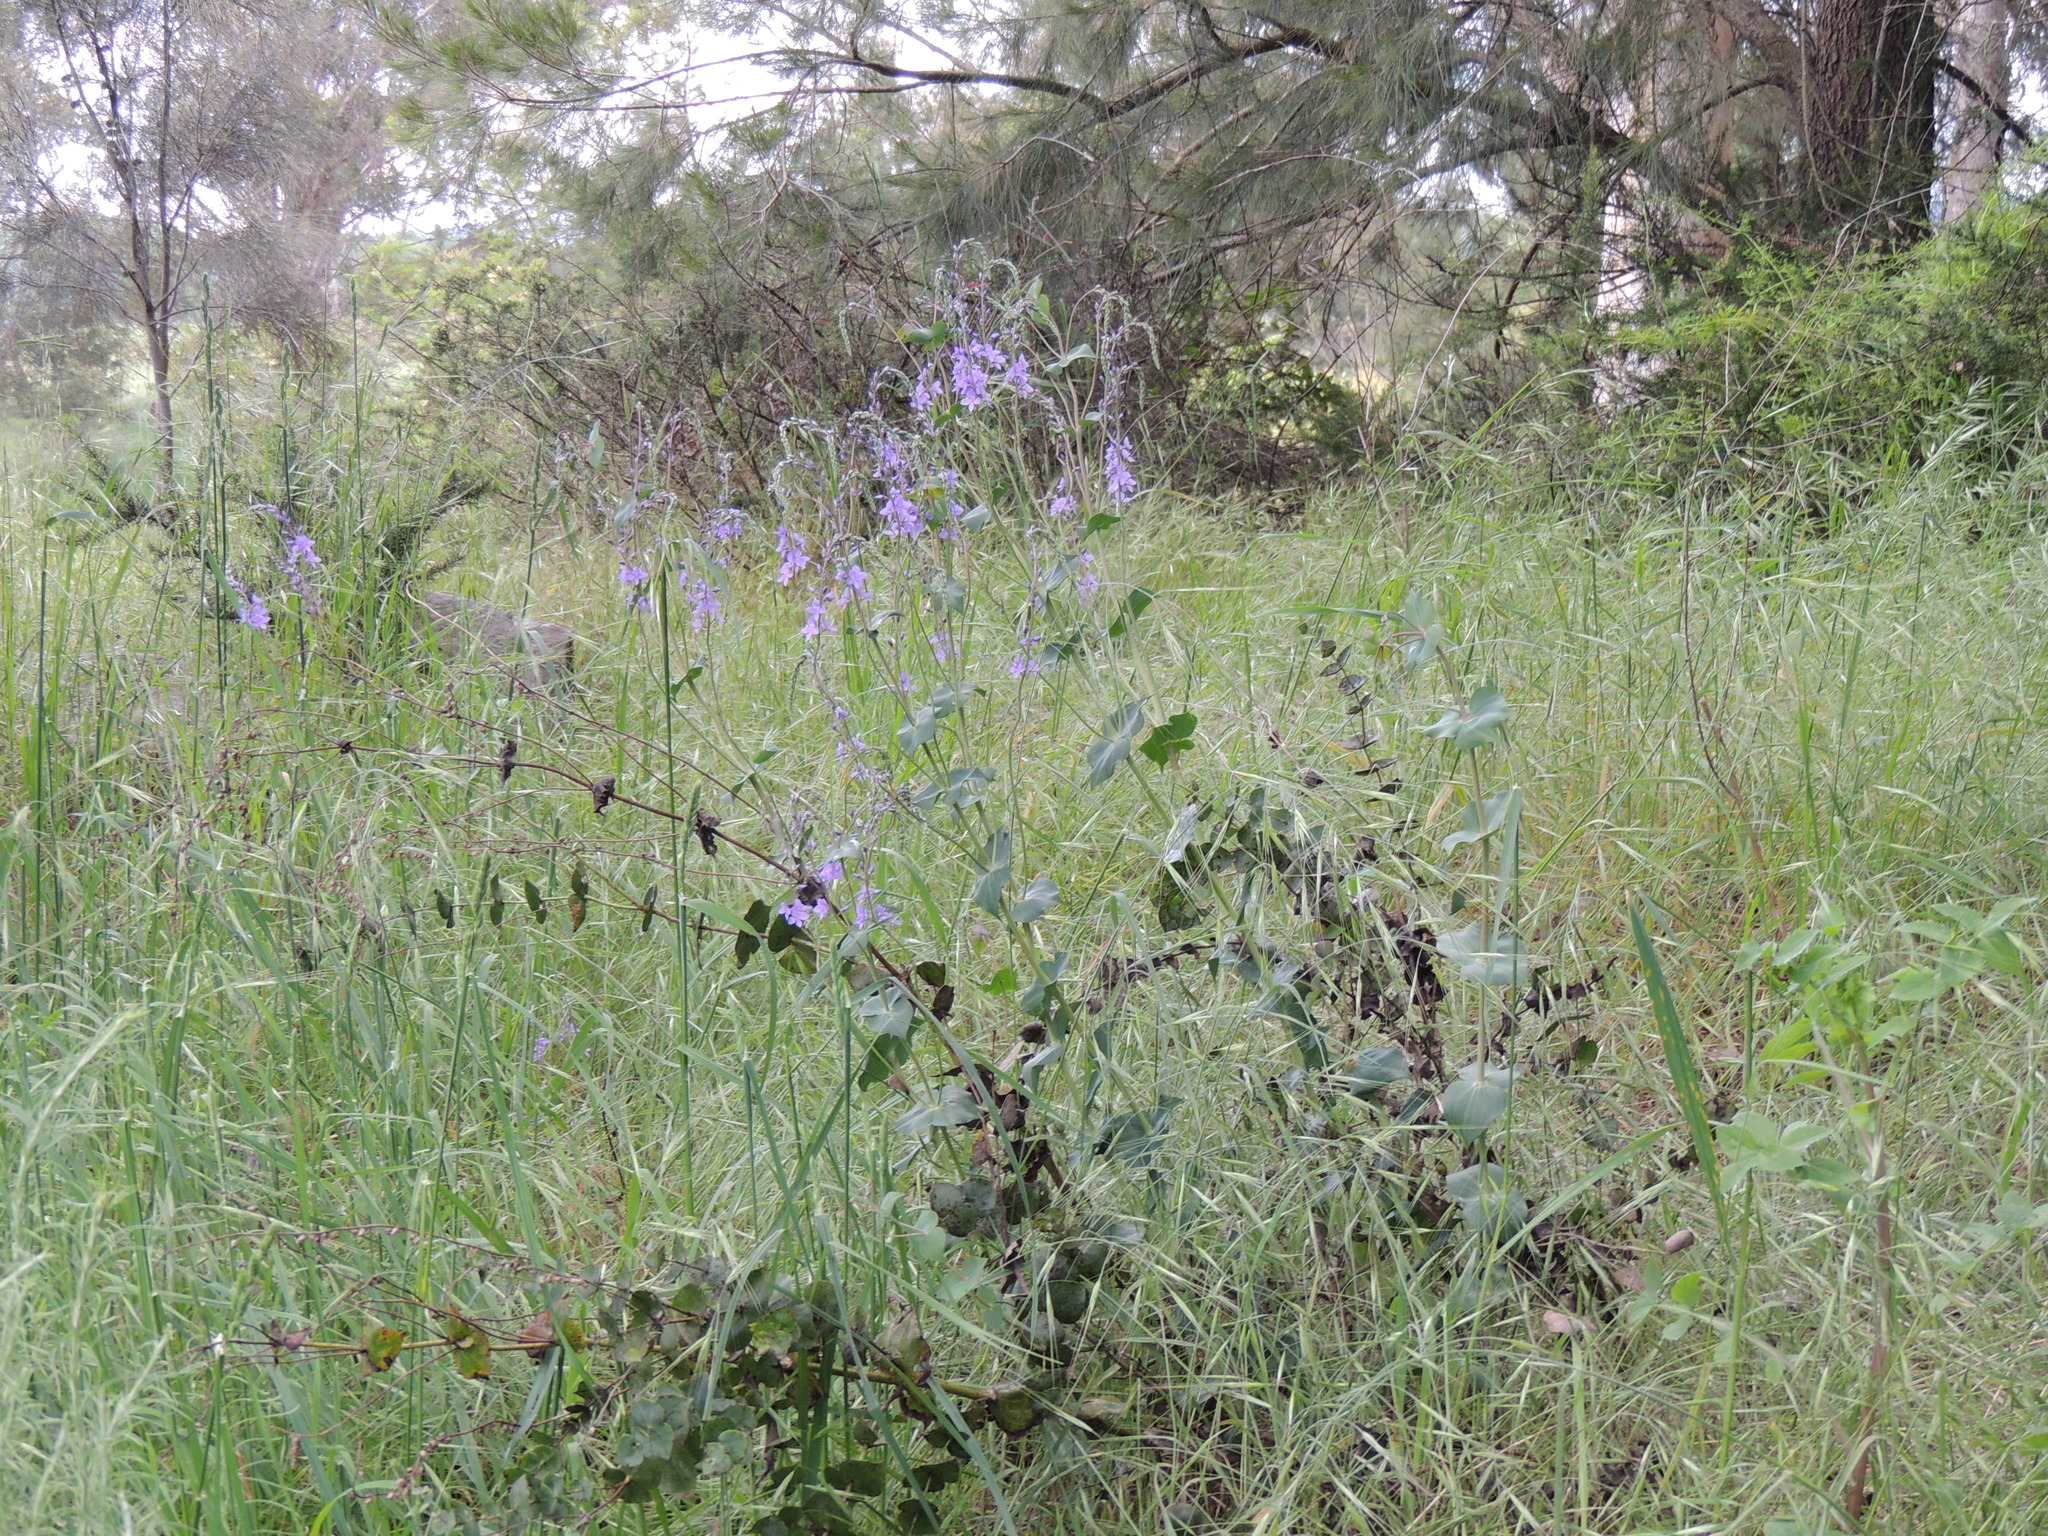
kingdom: Plantae
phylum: Tracheophyta
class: Magnoliopsida
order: Lamiales
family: Plantaginaceae
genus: Veronica
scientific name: Veronica perfoliata
